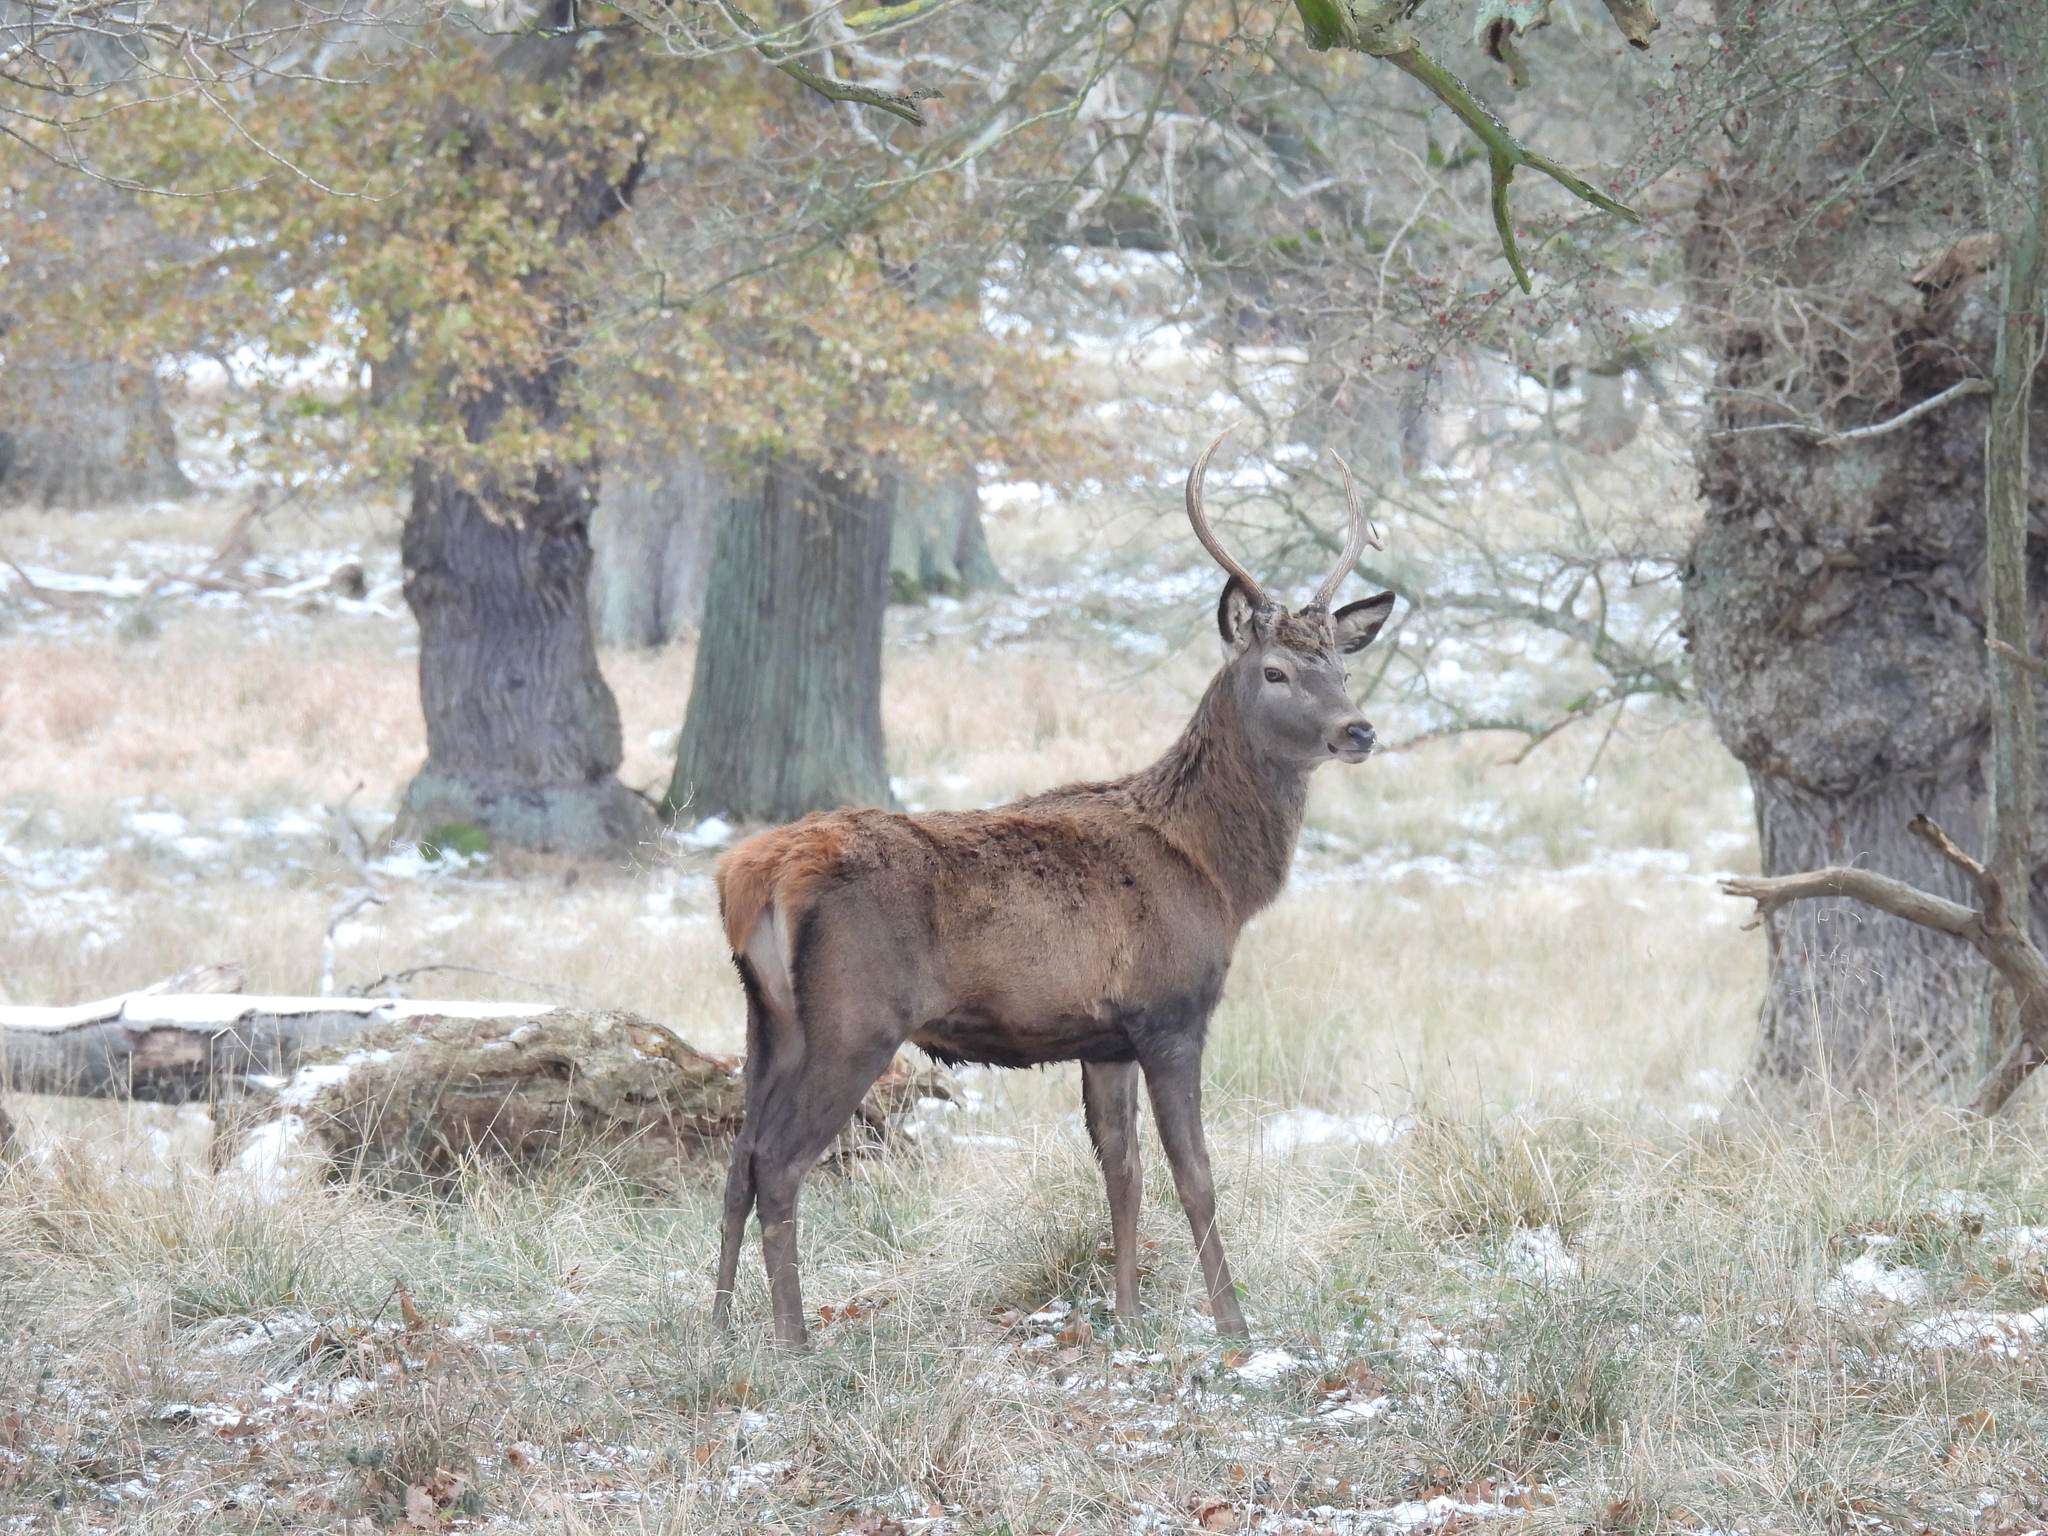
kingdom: Animalia
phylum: Chordata
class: Mammalia
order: Artiodactyla
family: Cervidae
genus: Cervus
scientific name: Cervus elaphus
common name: Red deer
